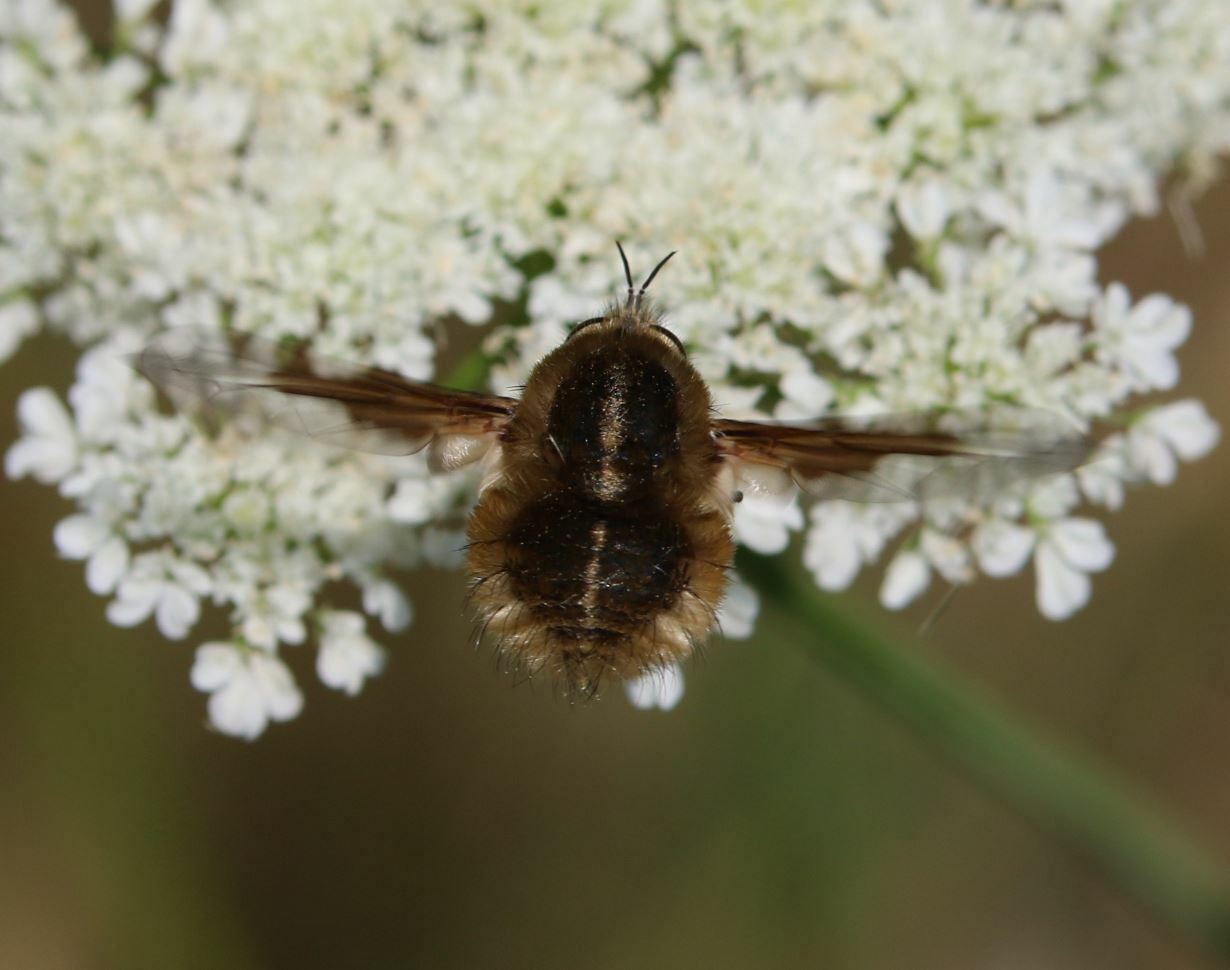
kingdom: Animalia
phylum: Arthropoda
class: Insecta
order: Diptera
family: Bombyliidae
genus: Bombylius
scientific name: Bombylius analis
